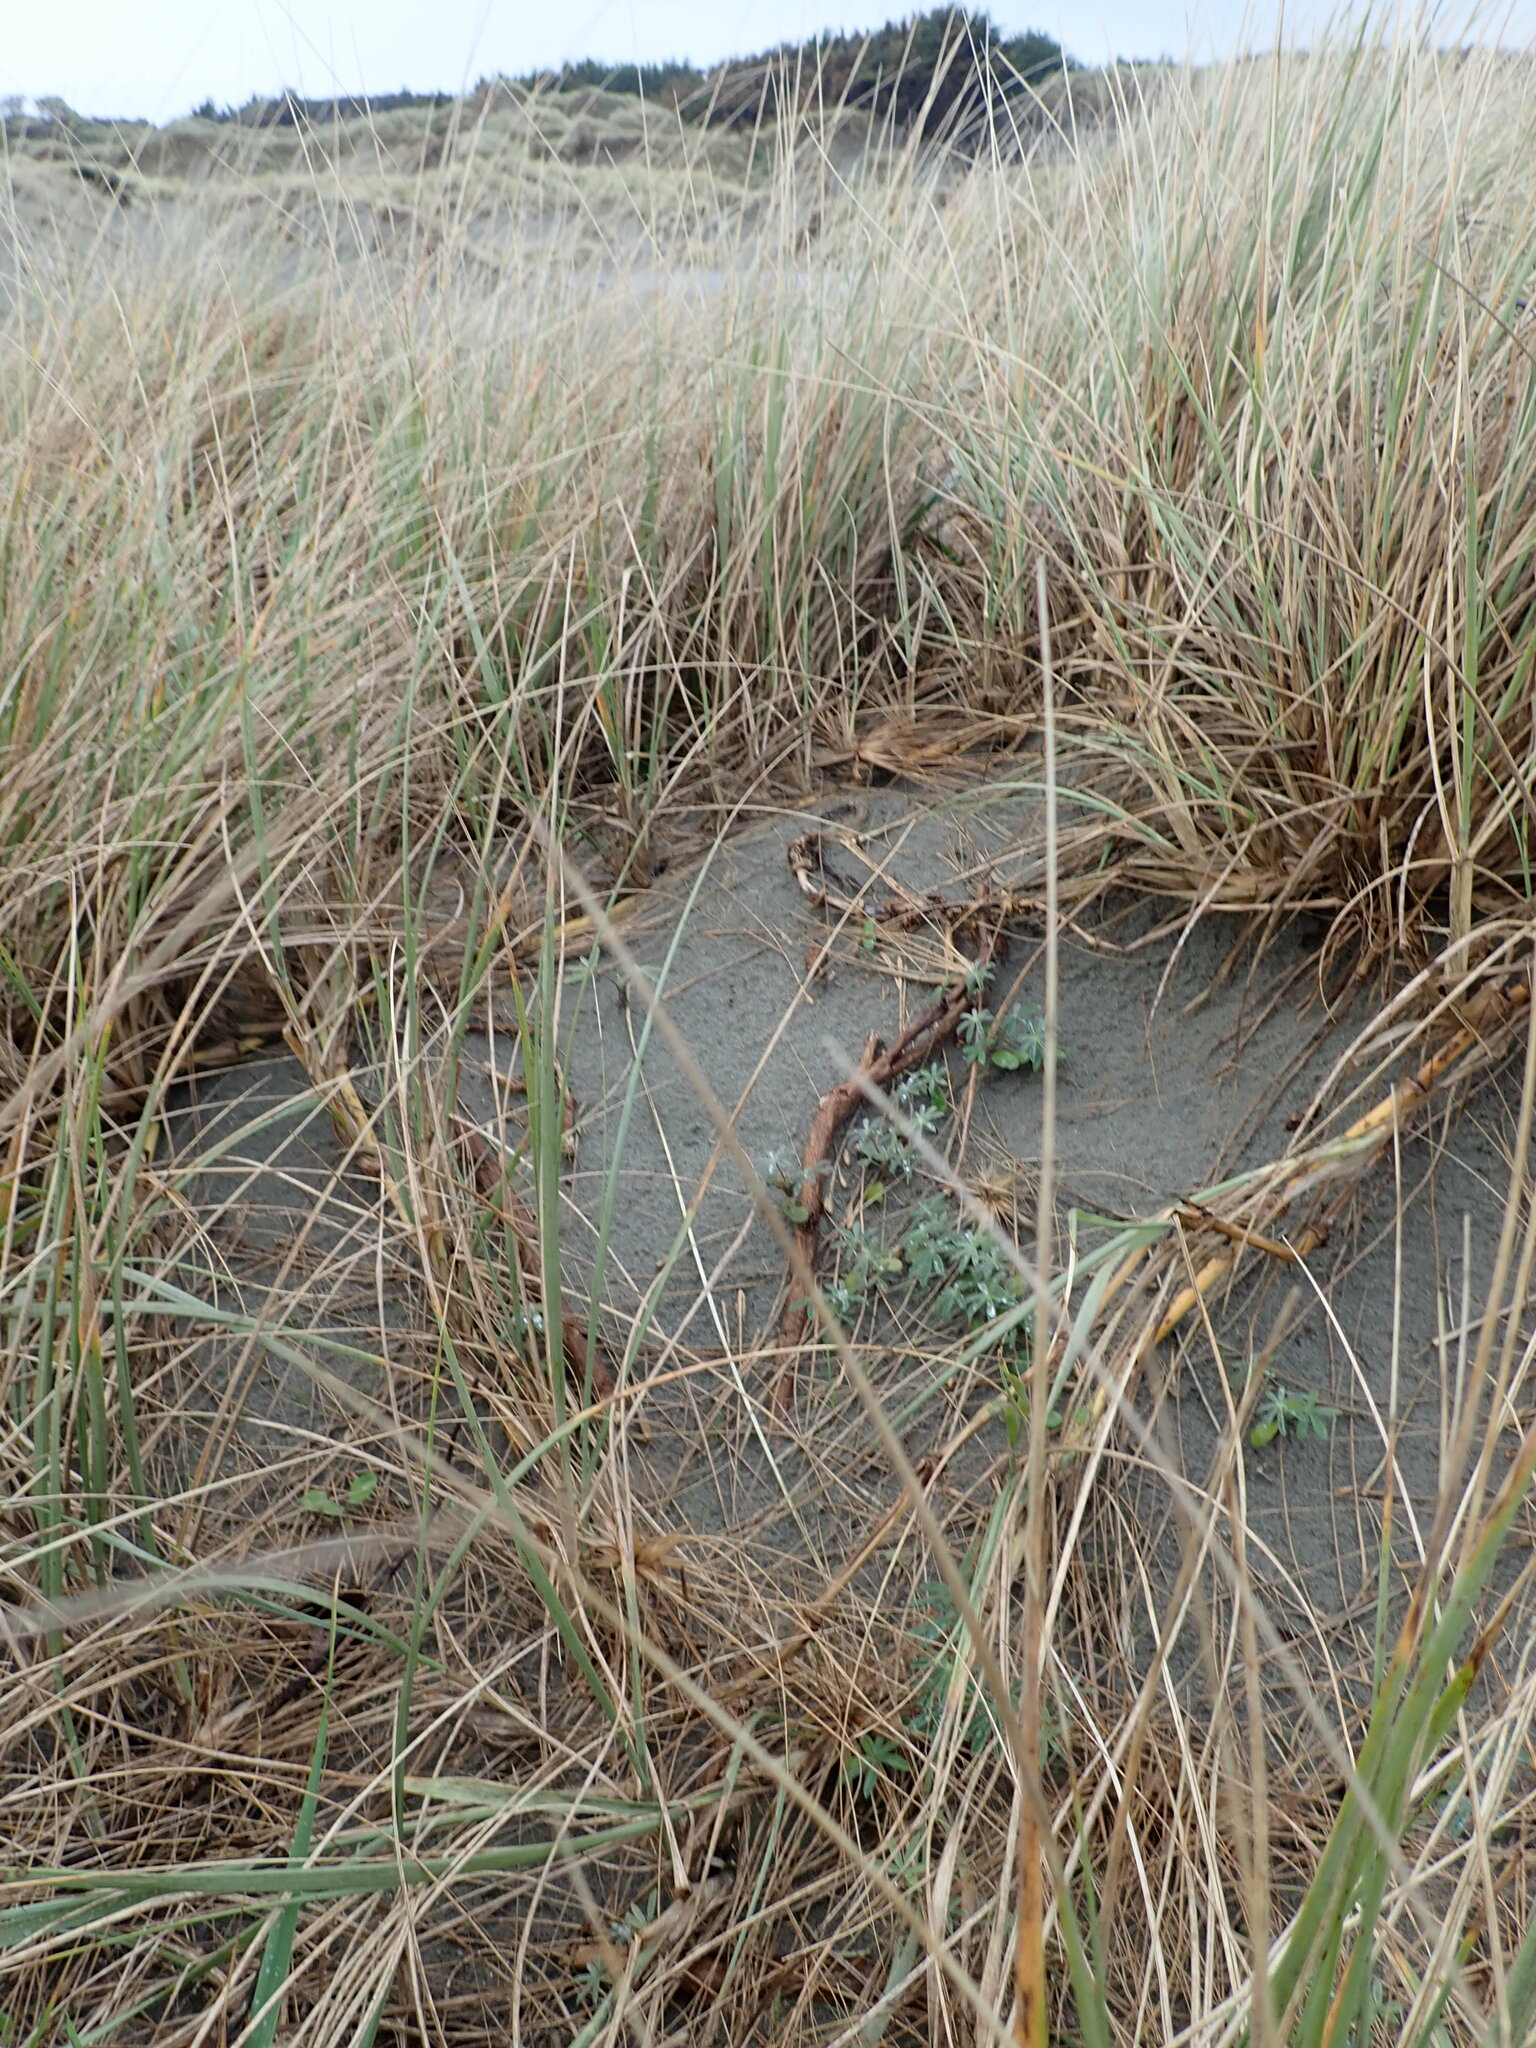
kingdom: Plantae
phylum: Tracheophyta
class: Magnoliopsida
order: Fabales
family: Fabaceae
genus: Lupinus
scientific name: Lupinus arboreus
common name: Yellow bush lupine
